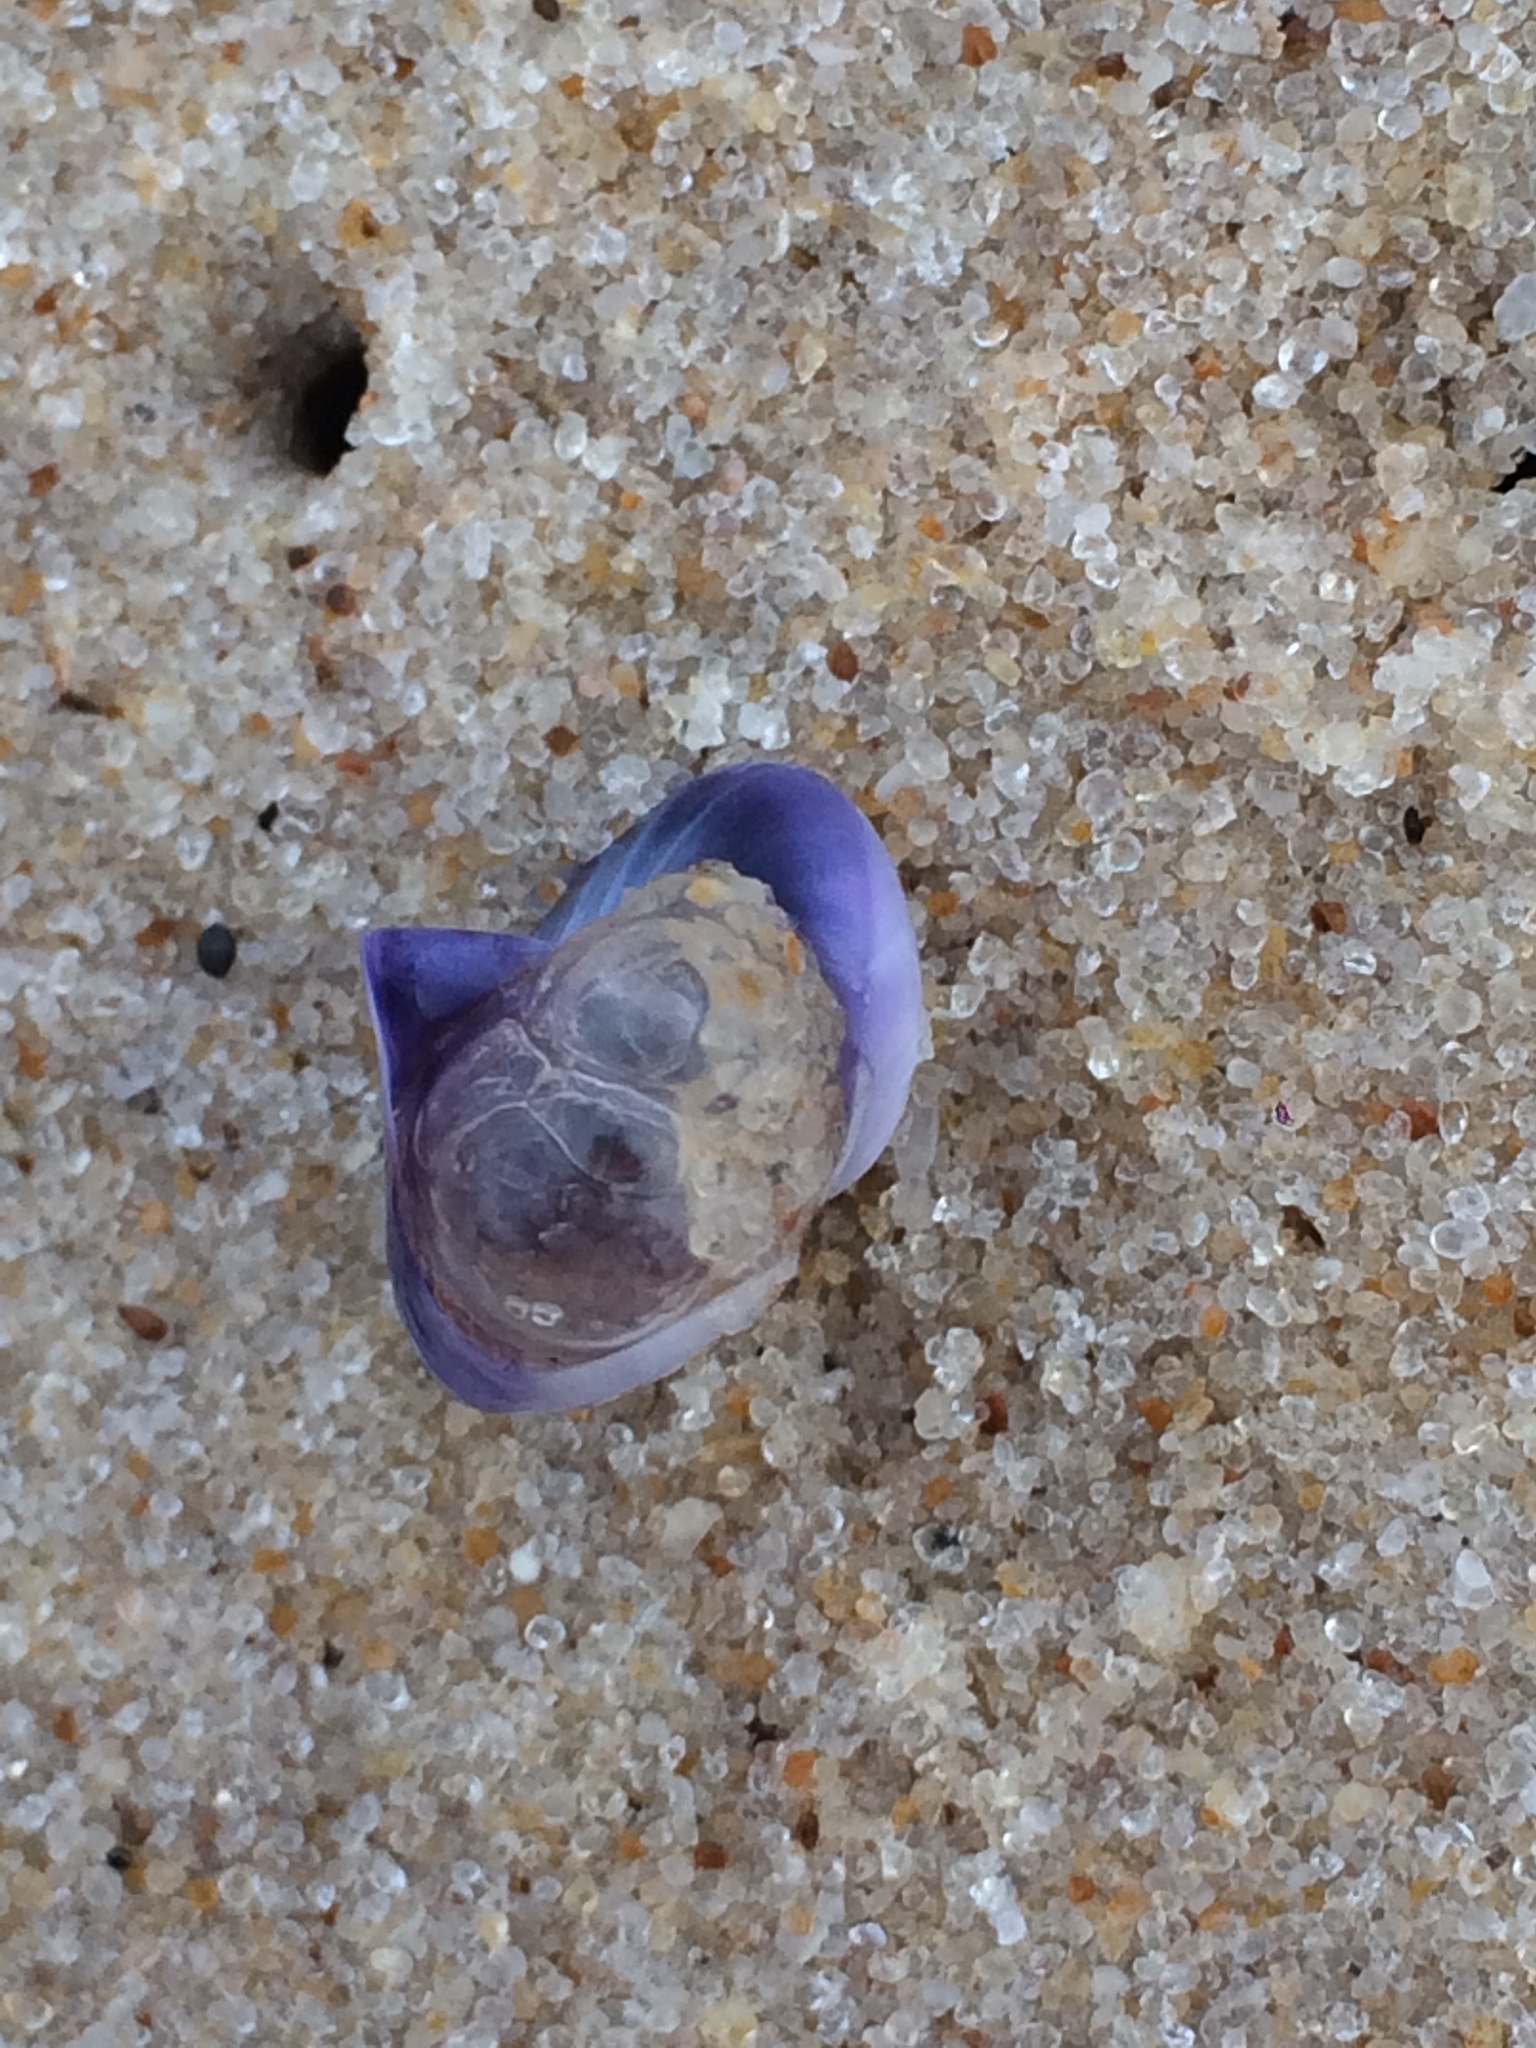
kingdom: Animalia
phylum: Mollusca
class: Gastropoda
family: Epitoniidae
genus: Janthina
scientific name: Janthina janthina
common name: Common janthina
